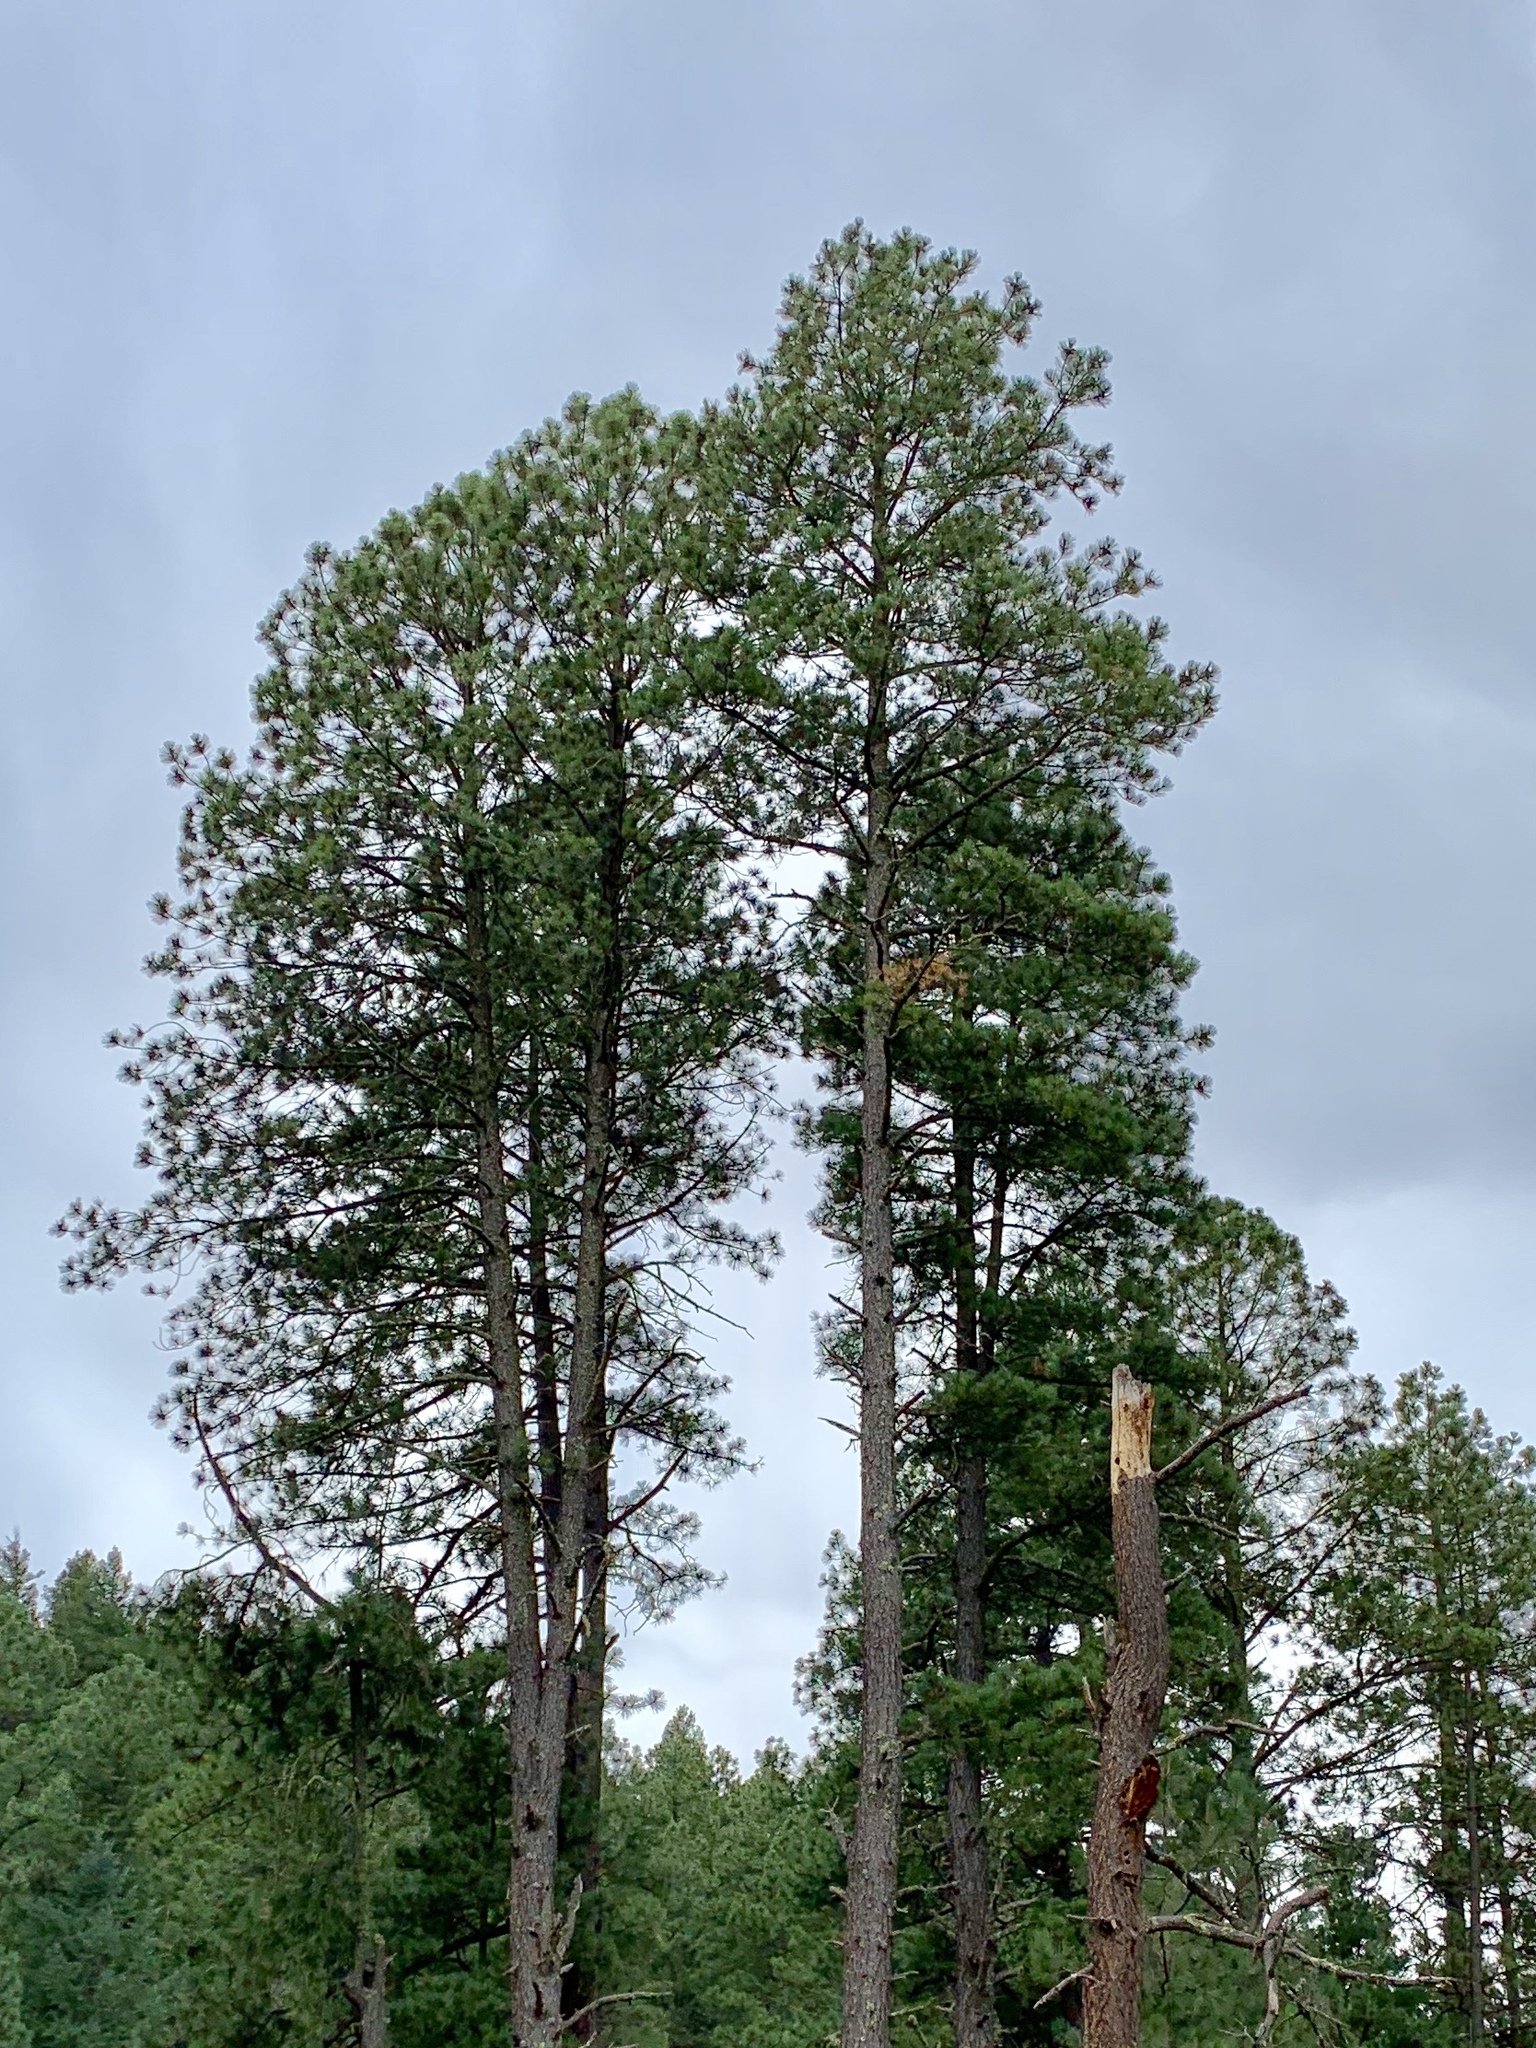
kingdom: Plantae
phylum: Tracheophyta
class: Pinopsida
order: Pinales
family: Pinaceae
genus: Pinus
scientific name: Pinus ponderosa
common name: Western yellow-pine
